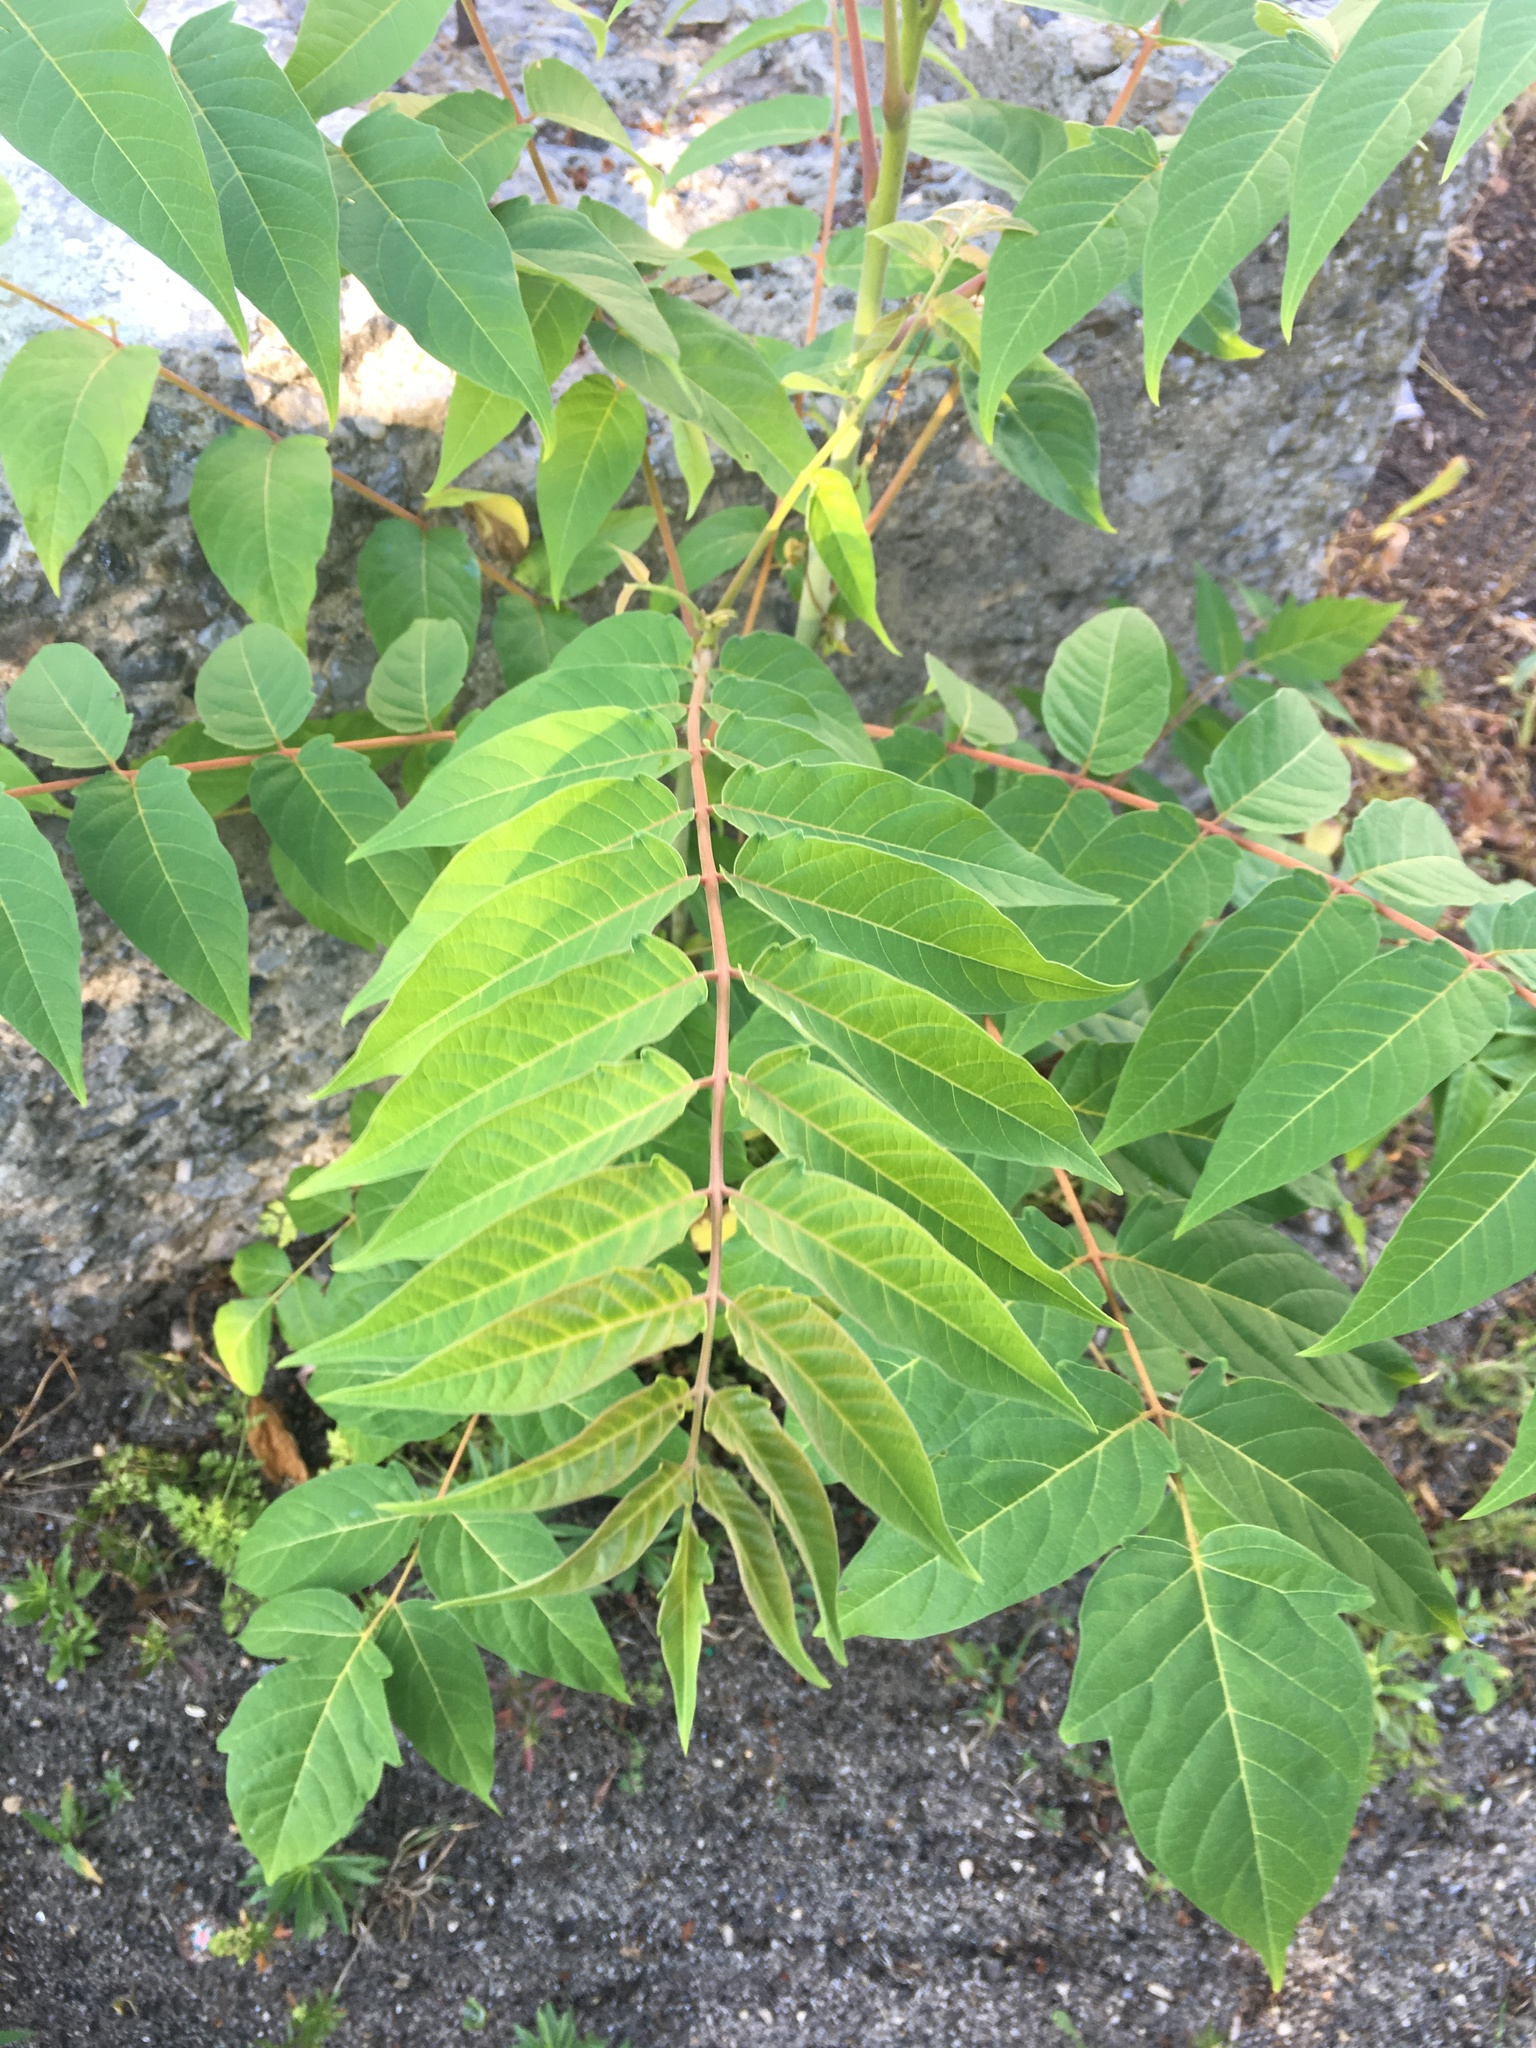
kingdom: Plantae
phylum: Tracheophyta
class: Magnoliopsida
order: Sapindales
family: Simaroubaceae
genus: Ailanthus
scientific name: Ailanthus altissima
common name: Tree-of-heaven
